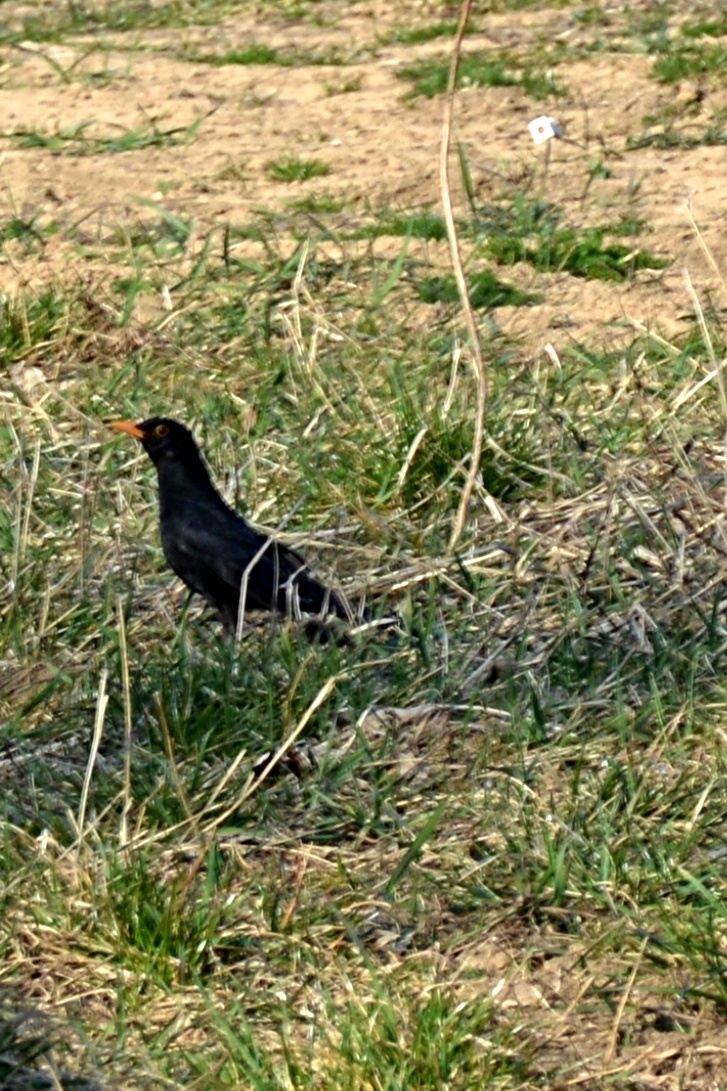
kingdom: Animalia
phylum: Chordata
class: Aves
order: Passeriformes
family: Turdidae
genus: Turdus
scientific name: Turdus merula
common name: Common blackbird
